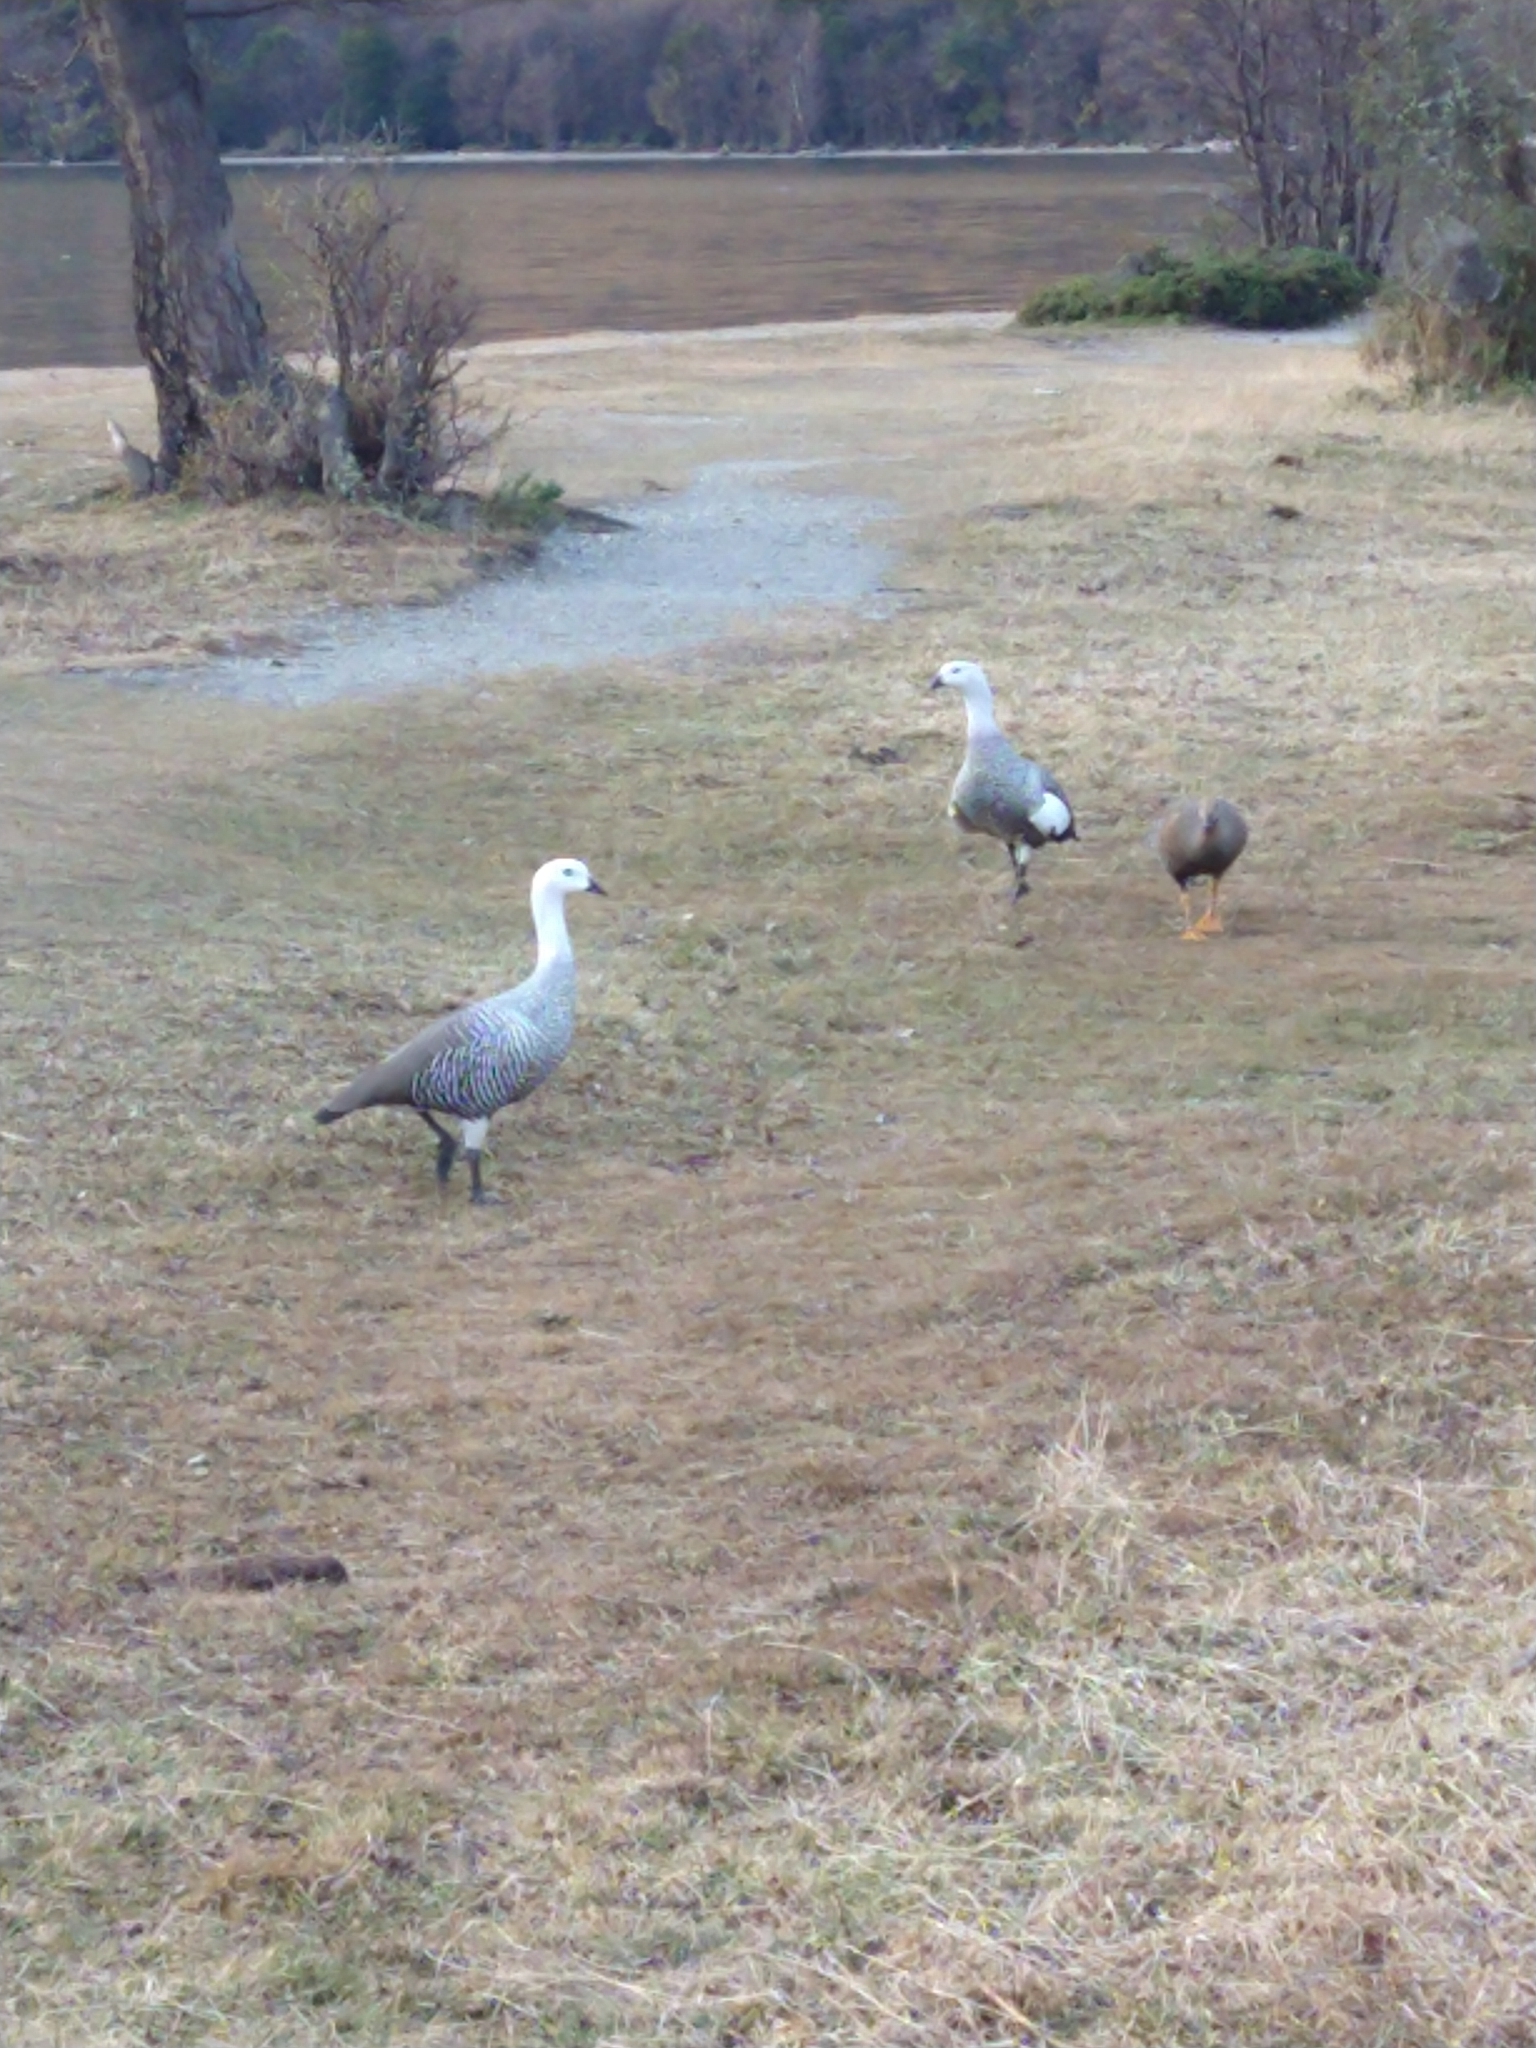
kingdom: Animalia
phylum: Chordata
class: Aves
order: Anseriformes
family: Anatidae
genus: Chloephaga
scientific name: Chloephaga picta
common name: Upland goose
